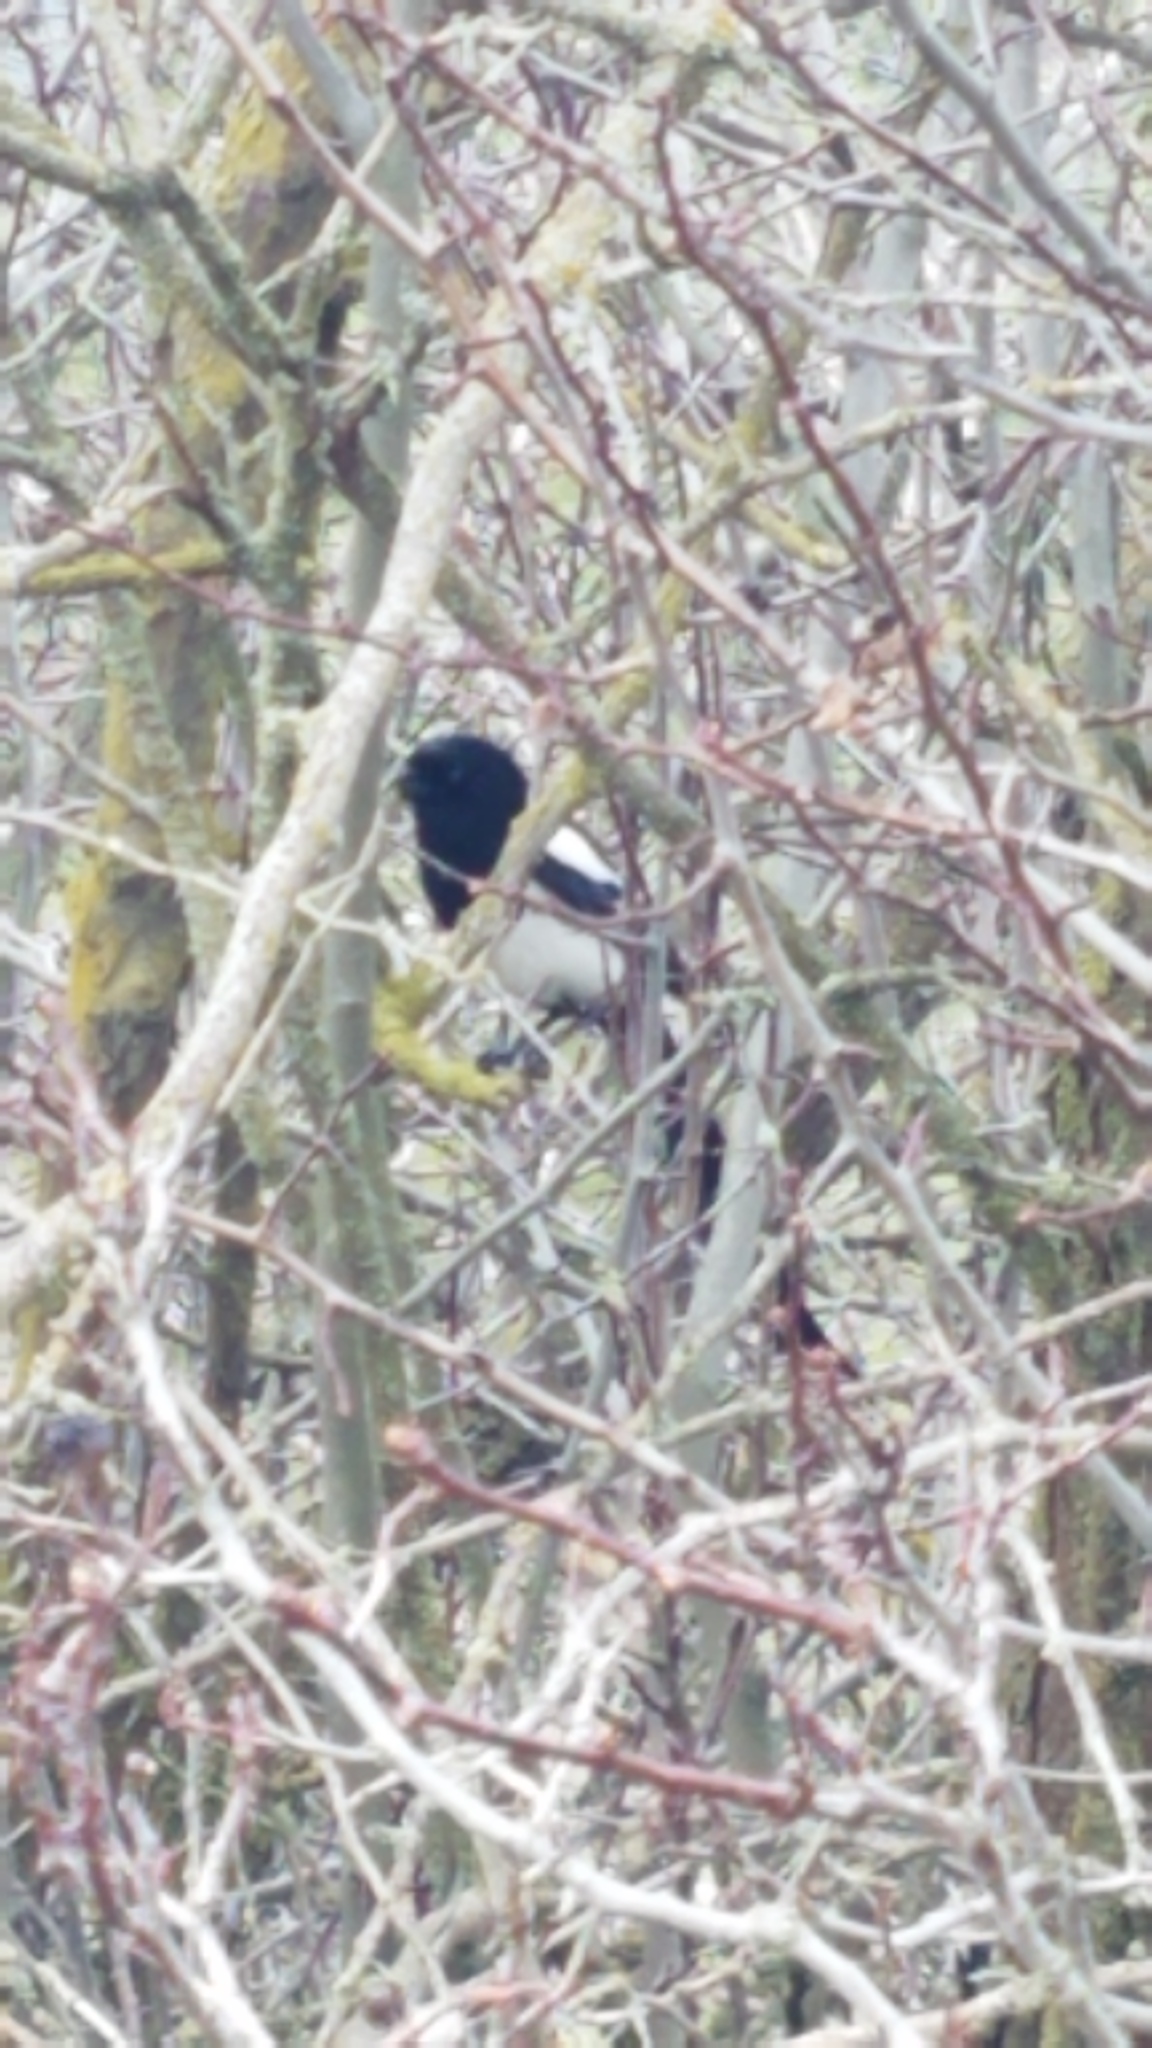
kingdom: Animalia
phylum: Chordata
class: Aves
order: Passeriformes
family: Corvidae
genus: Pica
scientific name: Pica hudsonia
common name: Black-billed magpie
